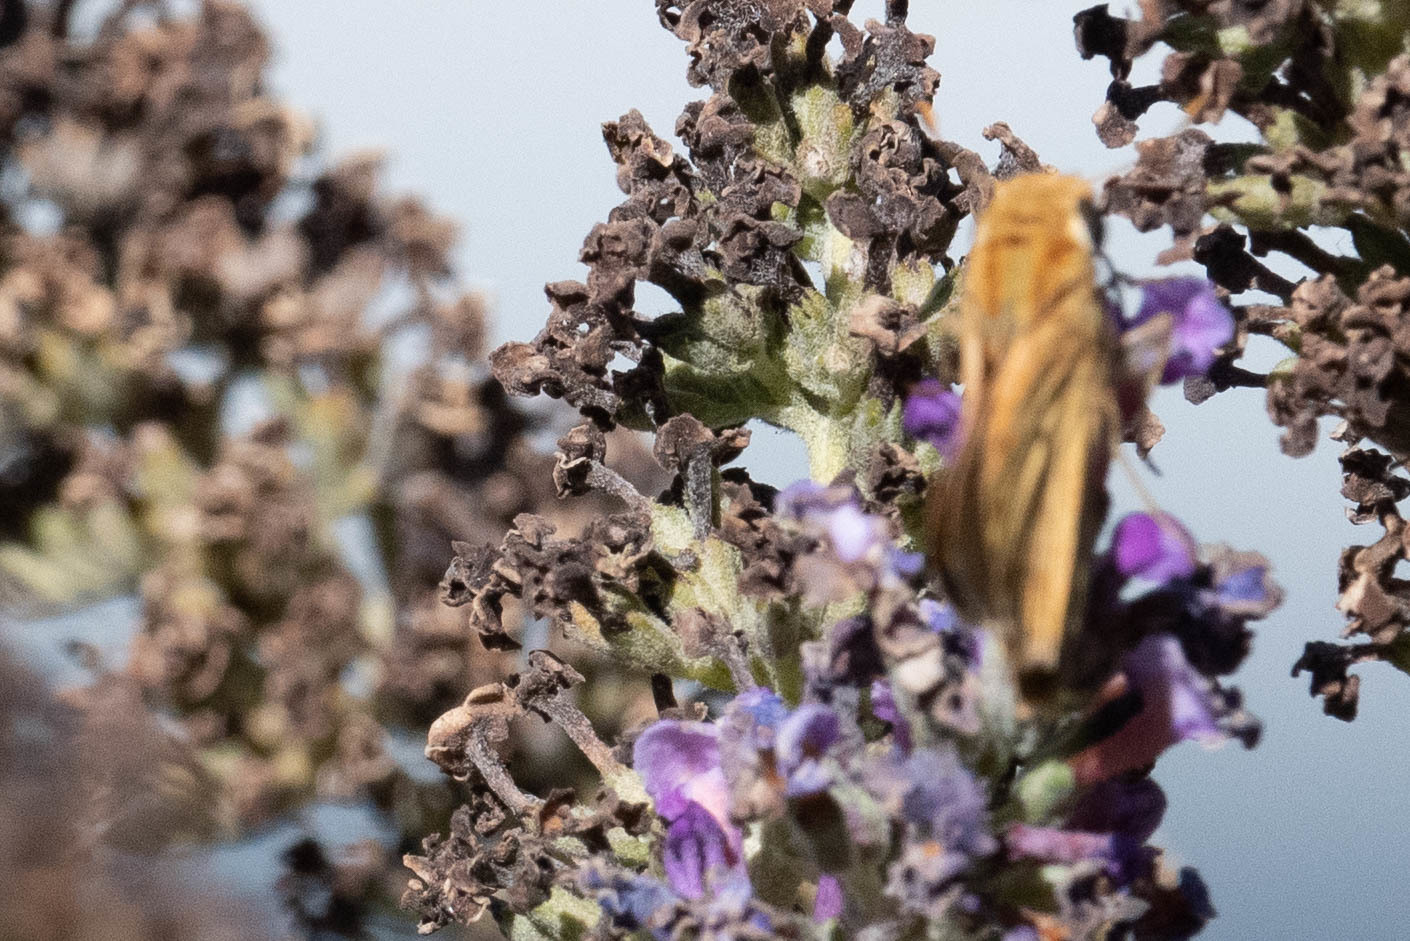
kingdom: Animalia
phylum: Arthropoda
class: Insecta
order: Lepidoptera
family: Hesperiidae
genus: Hylephila
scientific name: Hylephila phyleus
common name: Fiery skipper
